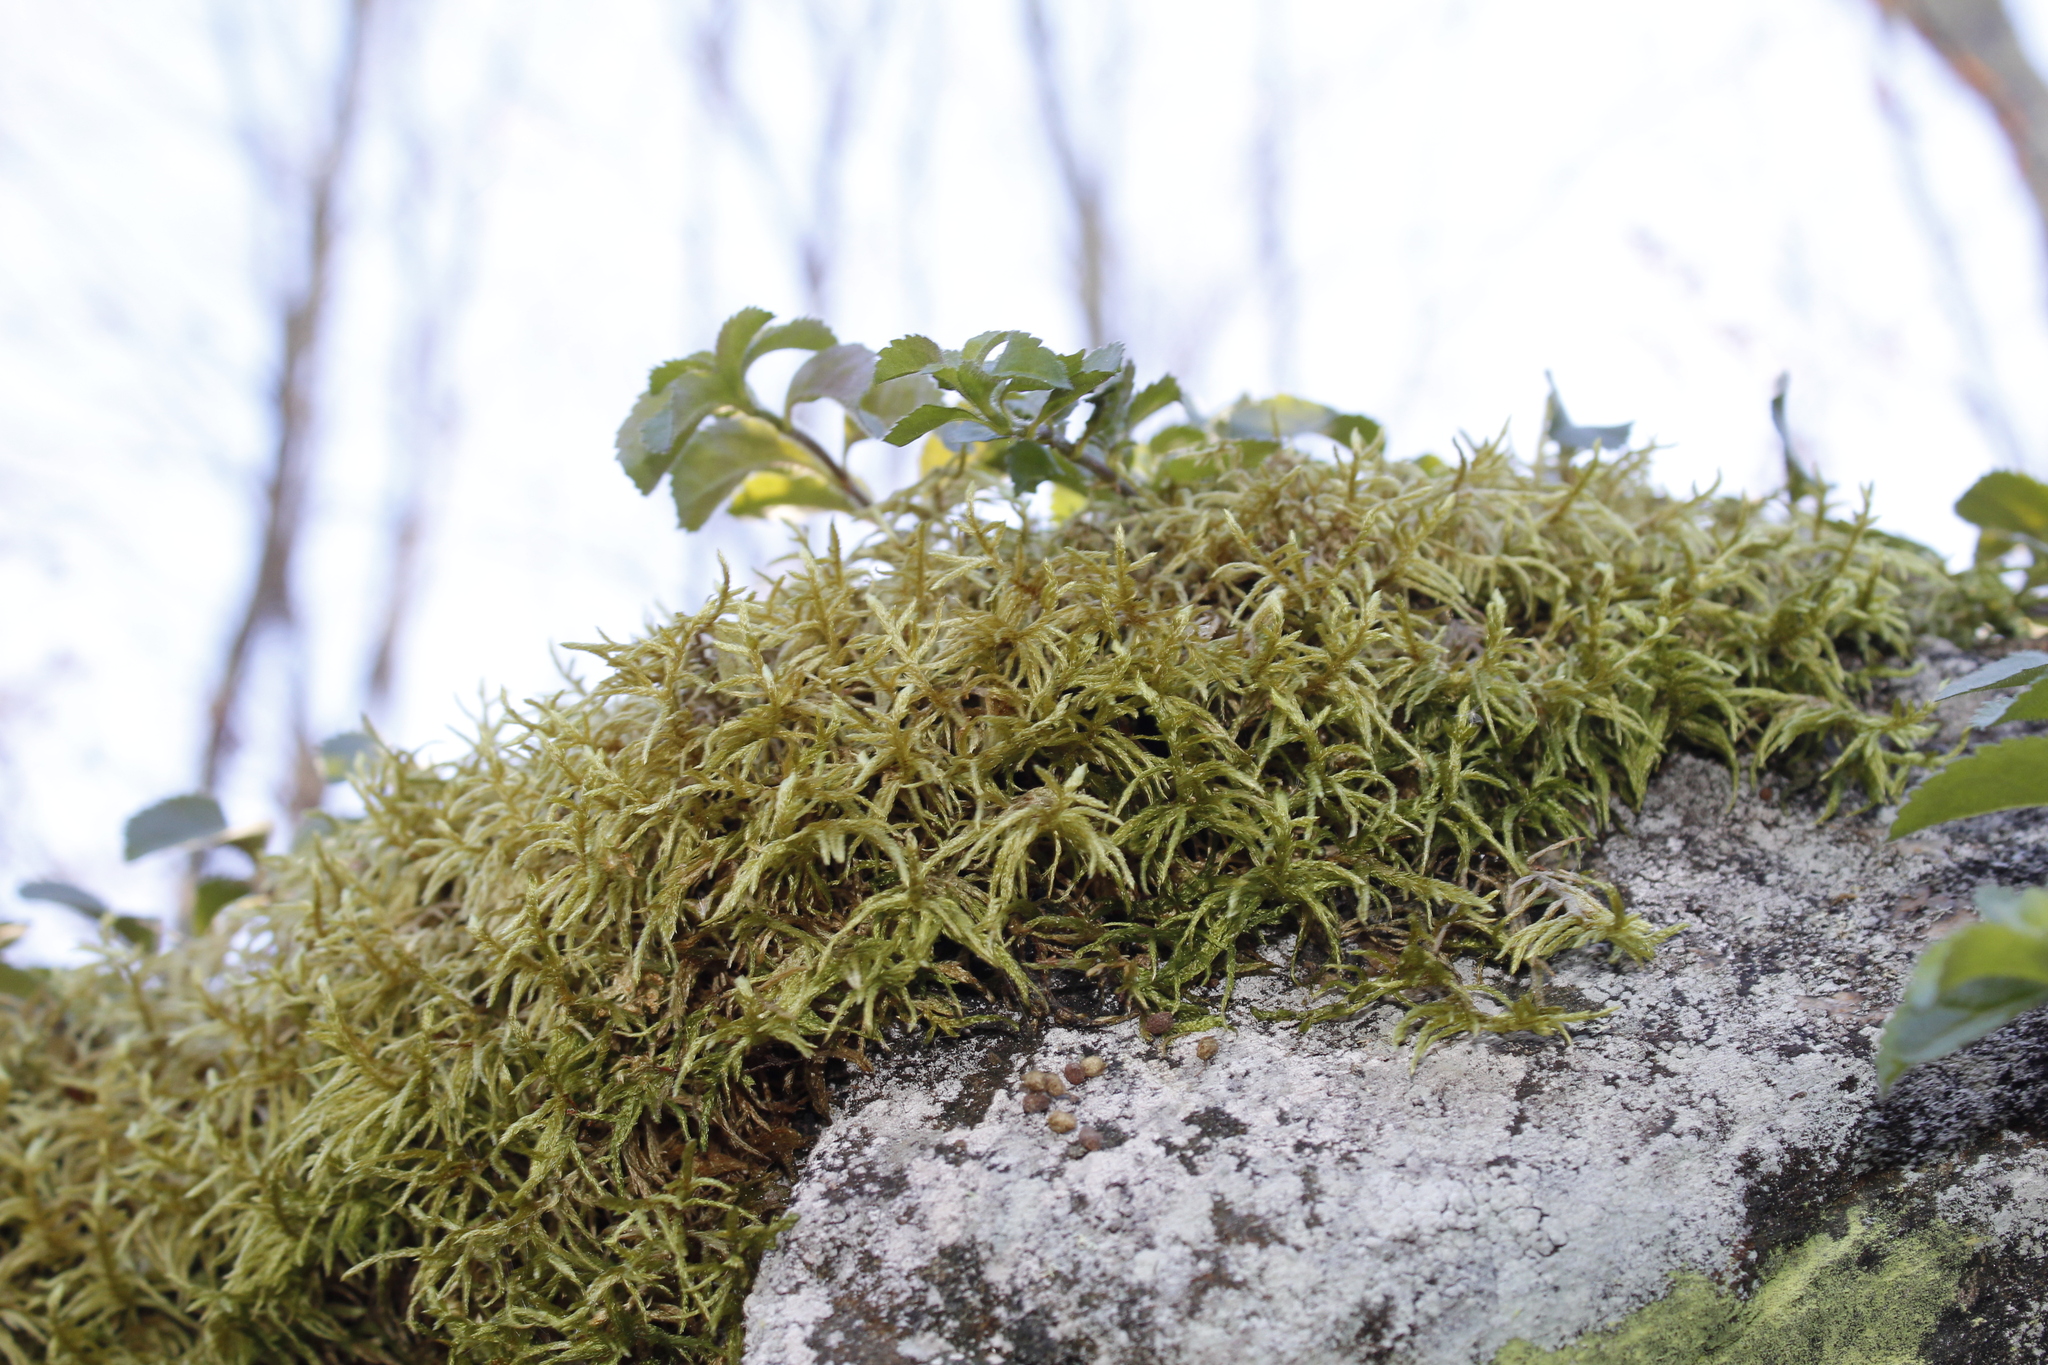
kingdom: Plantae
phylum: Bryophyta
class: Bryopsida
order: Hypnales
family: Hylocomiaceae
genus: Pleurozium
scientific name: Pleurozium schreberi
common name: Red-stemmed feather moss
